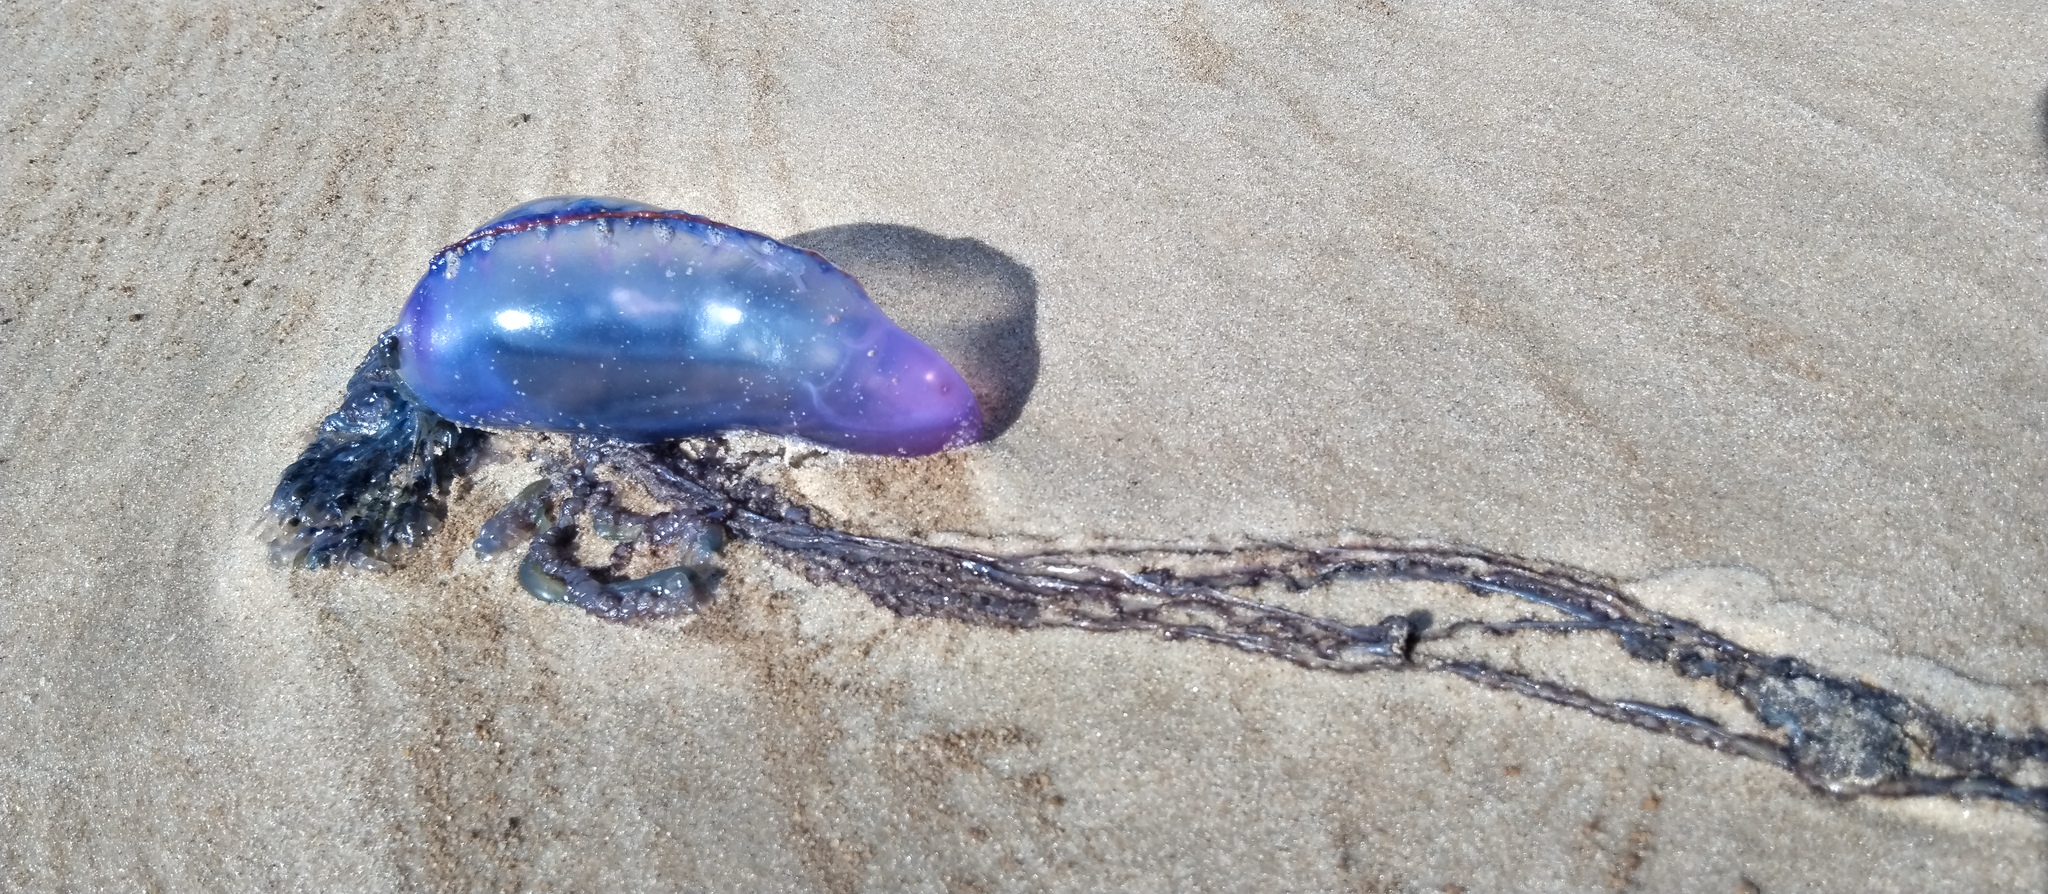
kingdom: Animalia
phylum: Cnidaria
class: Hydrozoa
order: Siphonophorae
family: Physaliidae
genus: Physalia
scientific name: Physalia physalis
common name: Portuguese man-of-war
